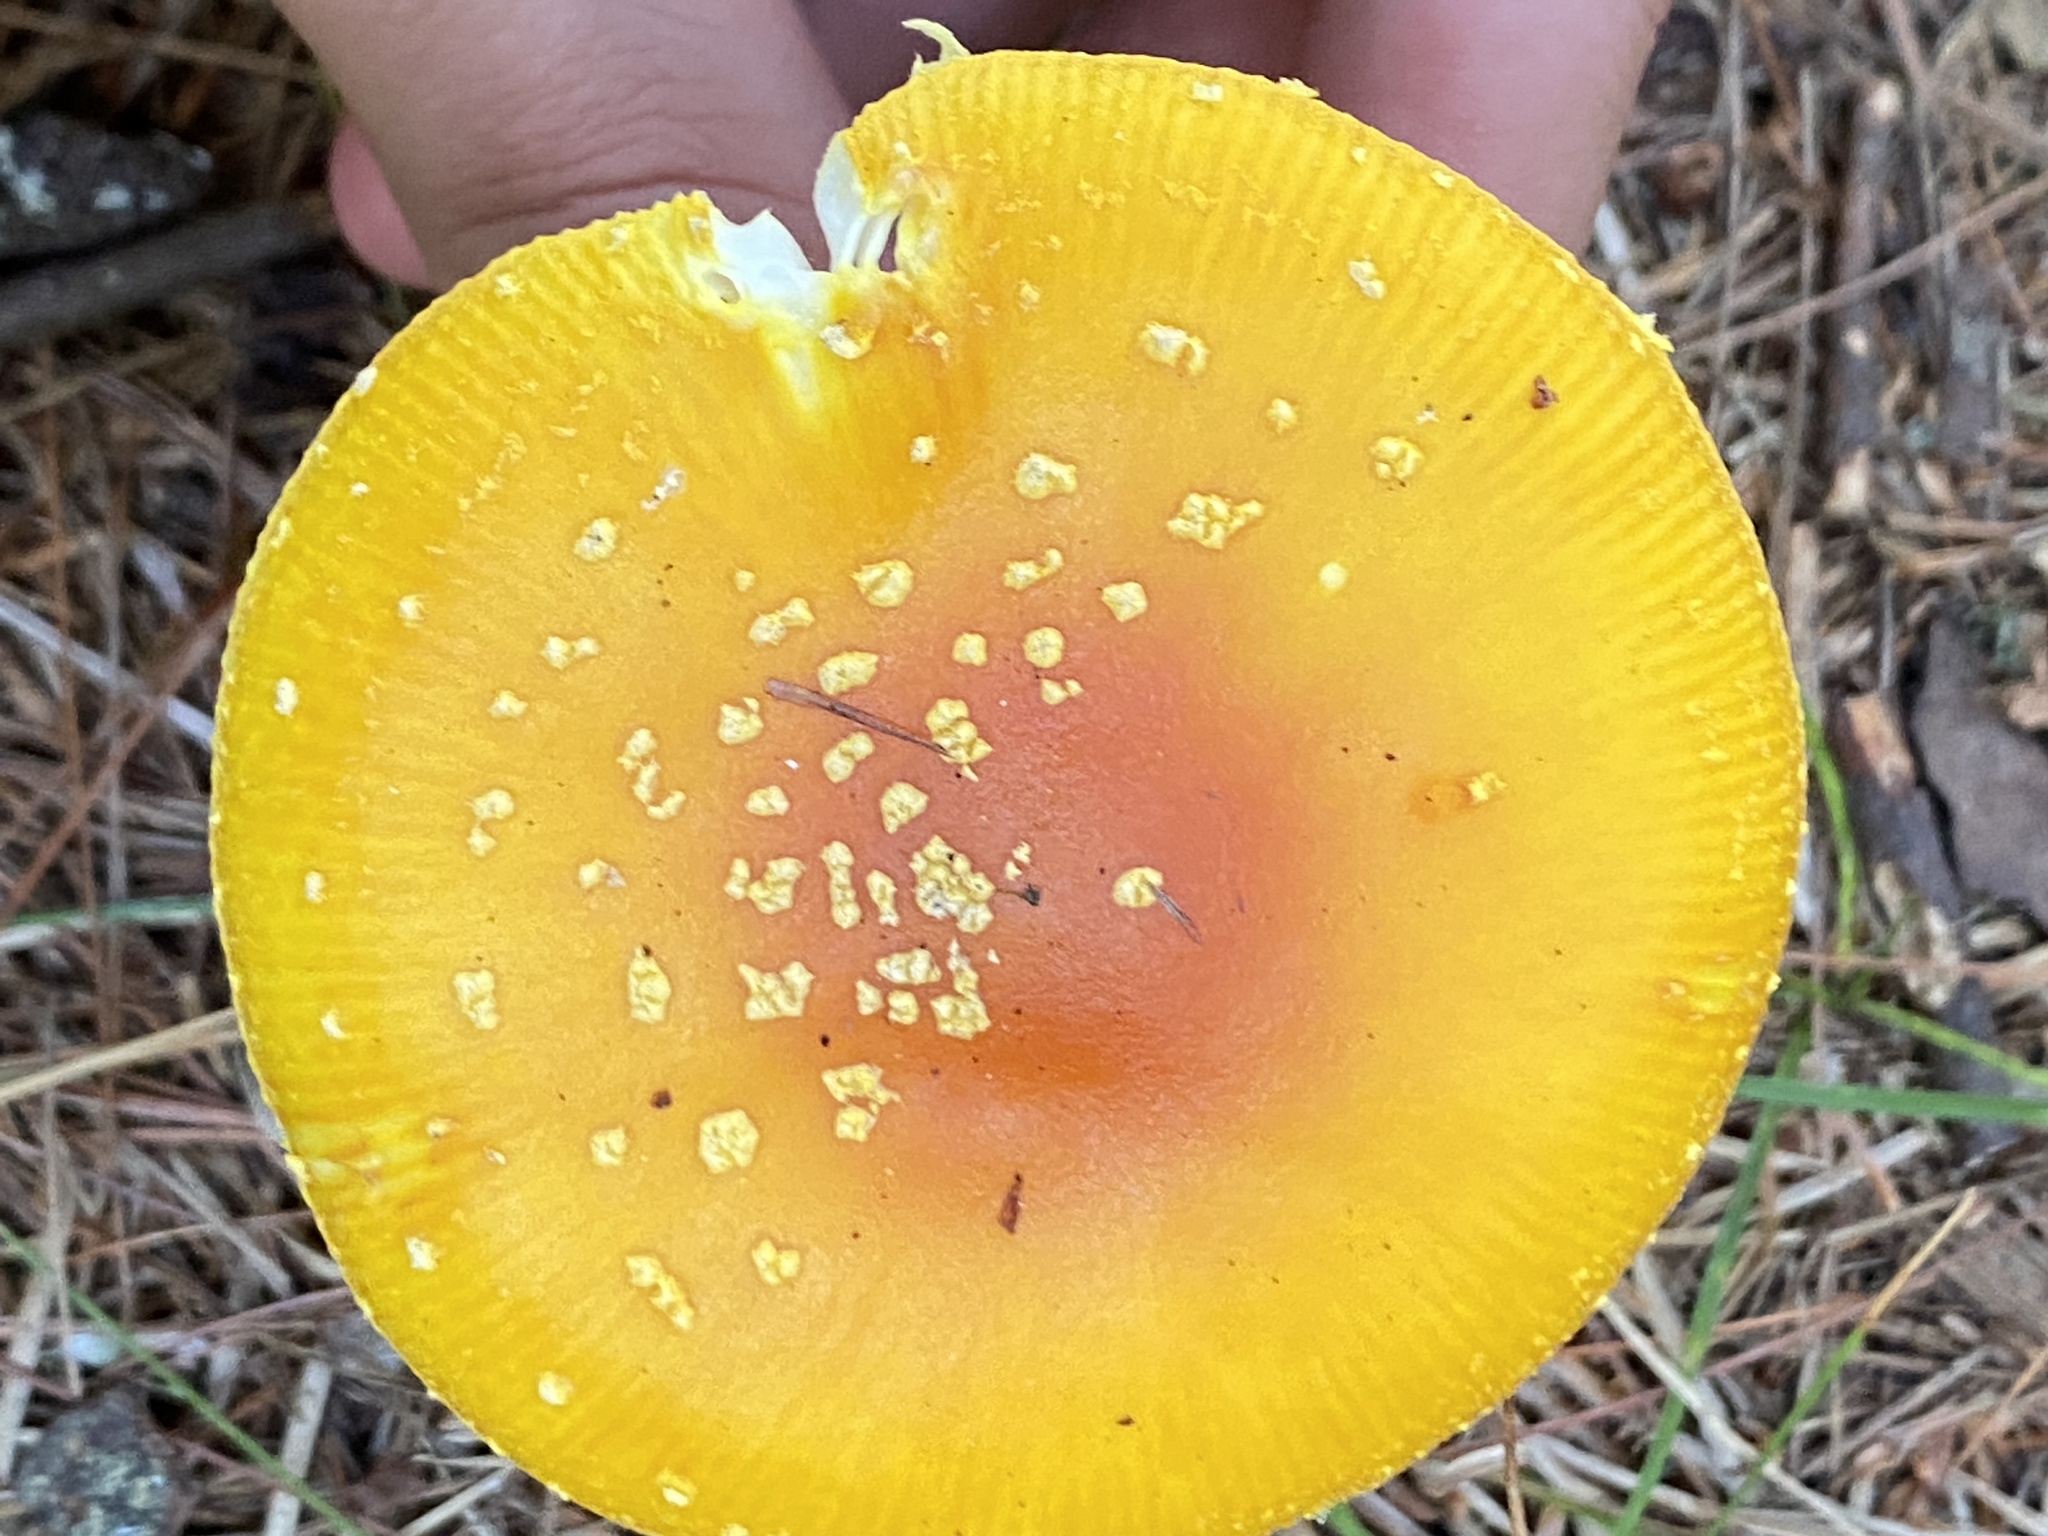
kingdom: Fungi
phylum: Basidiomycota
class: Agaricomycetes
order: Agaricales
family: Amanitaceae
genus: Amanita
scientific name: Amanita frostiana
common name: Frost's amanita
